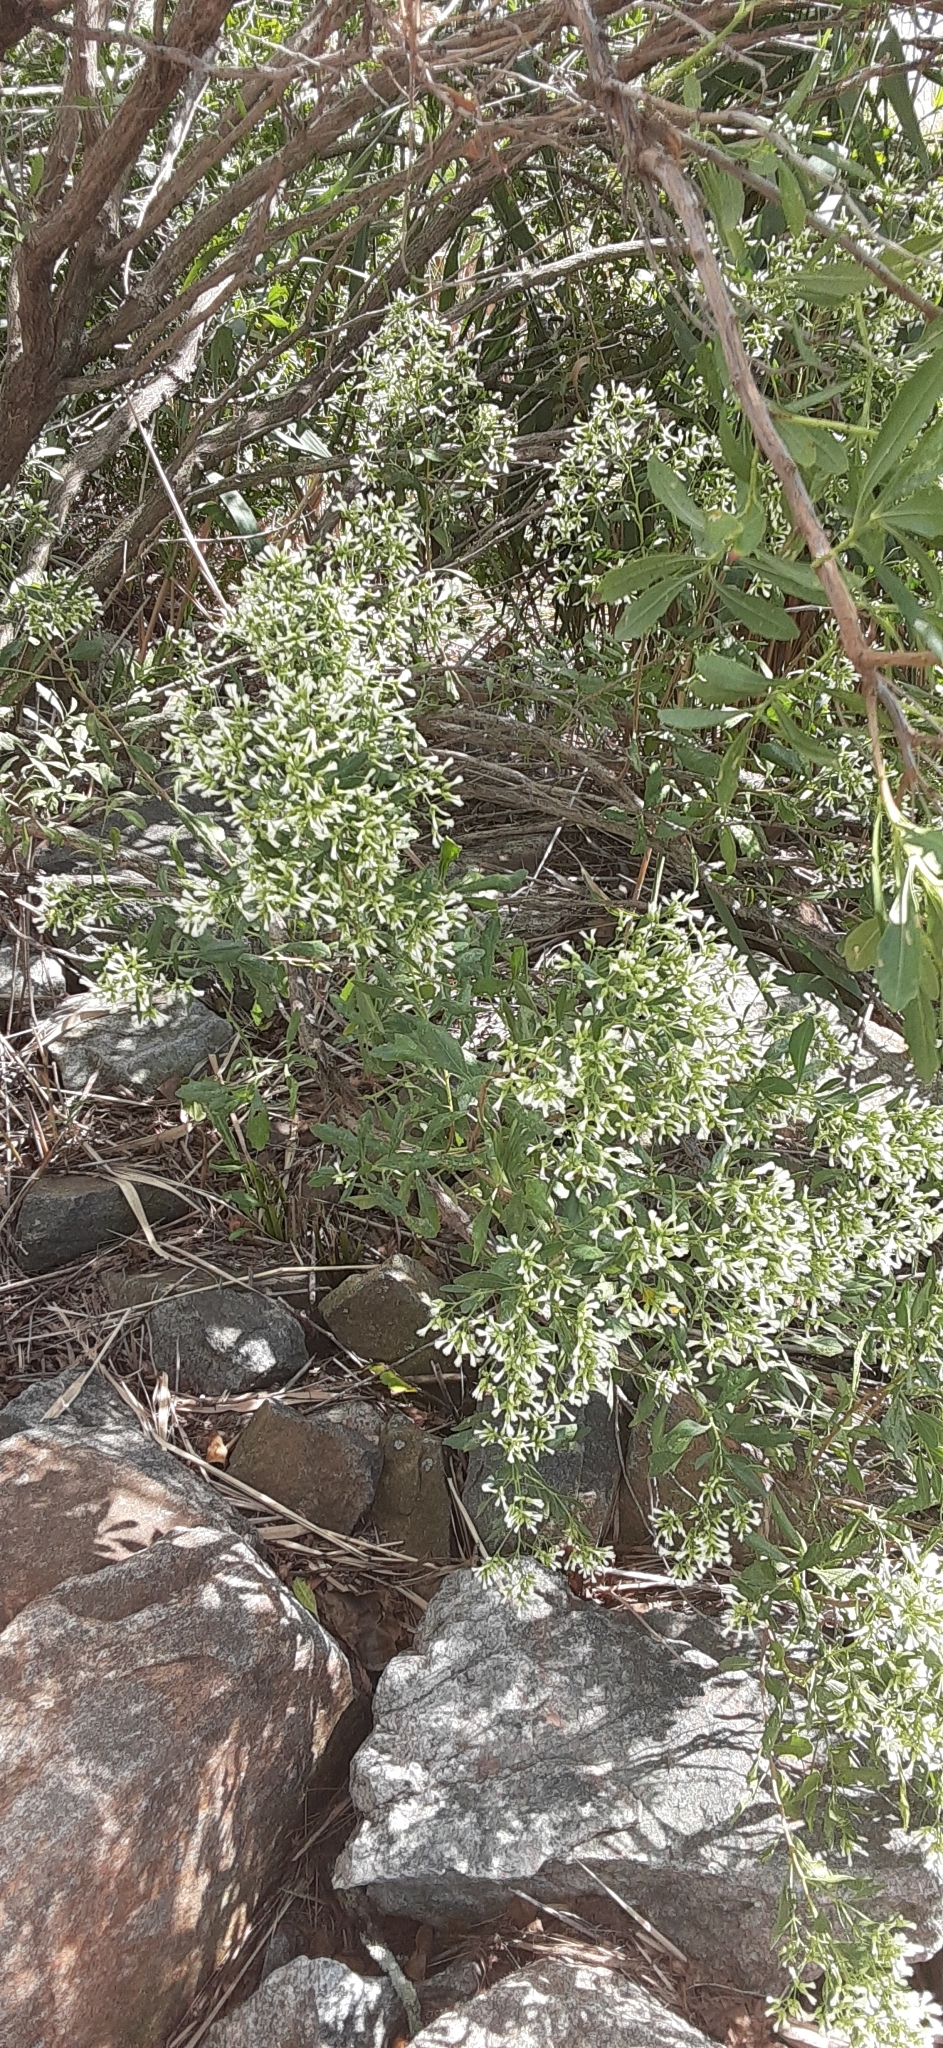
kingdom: Plantae
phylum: Tracheophyta
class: Magnoliopsida
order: Asterales
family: Asteraceae
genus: Baccharis
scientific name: Baccharis halimifolia
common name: Eastern baccharis
